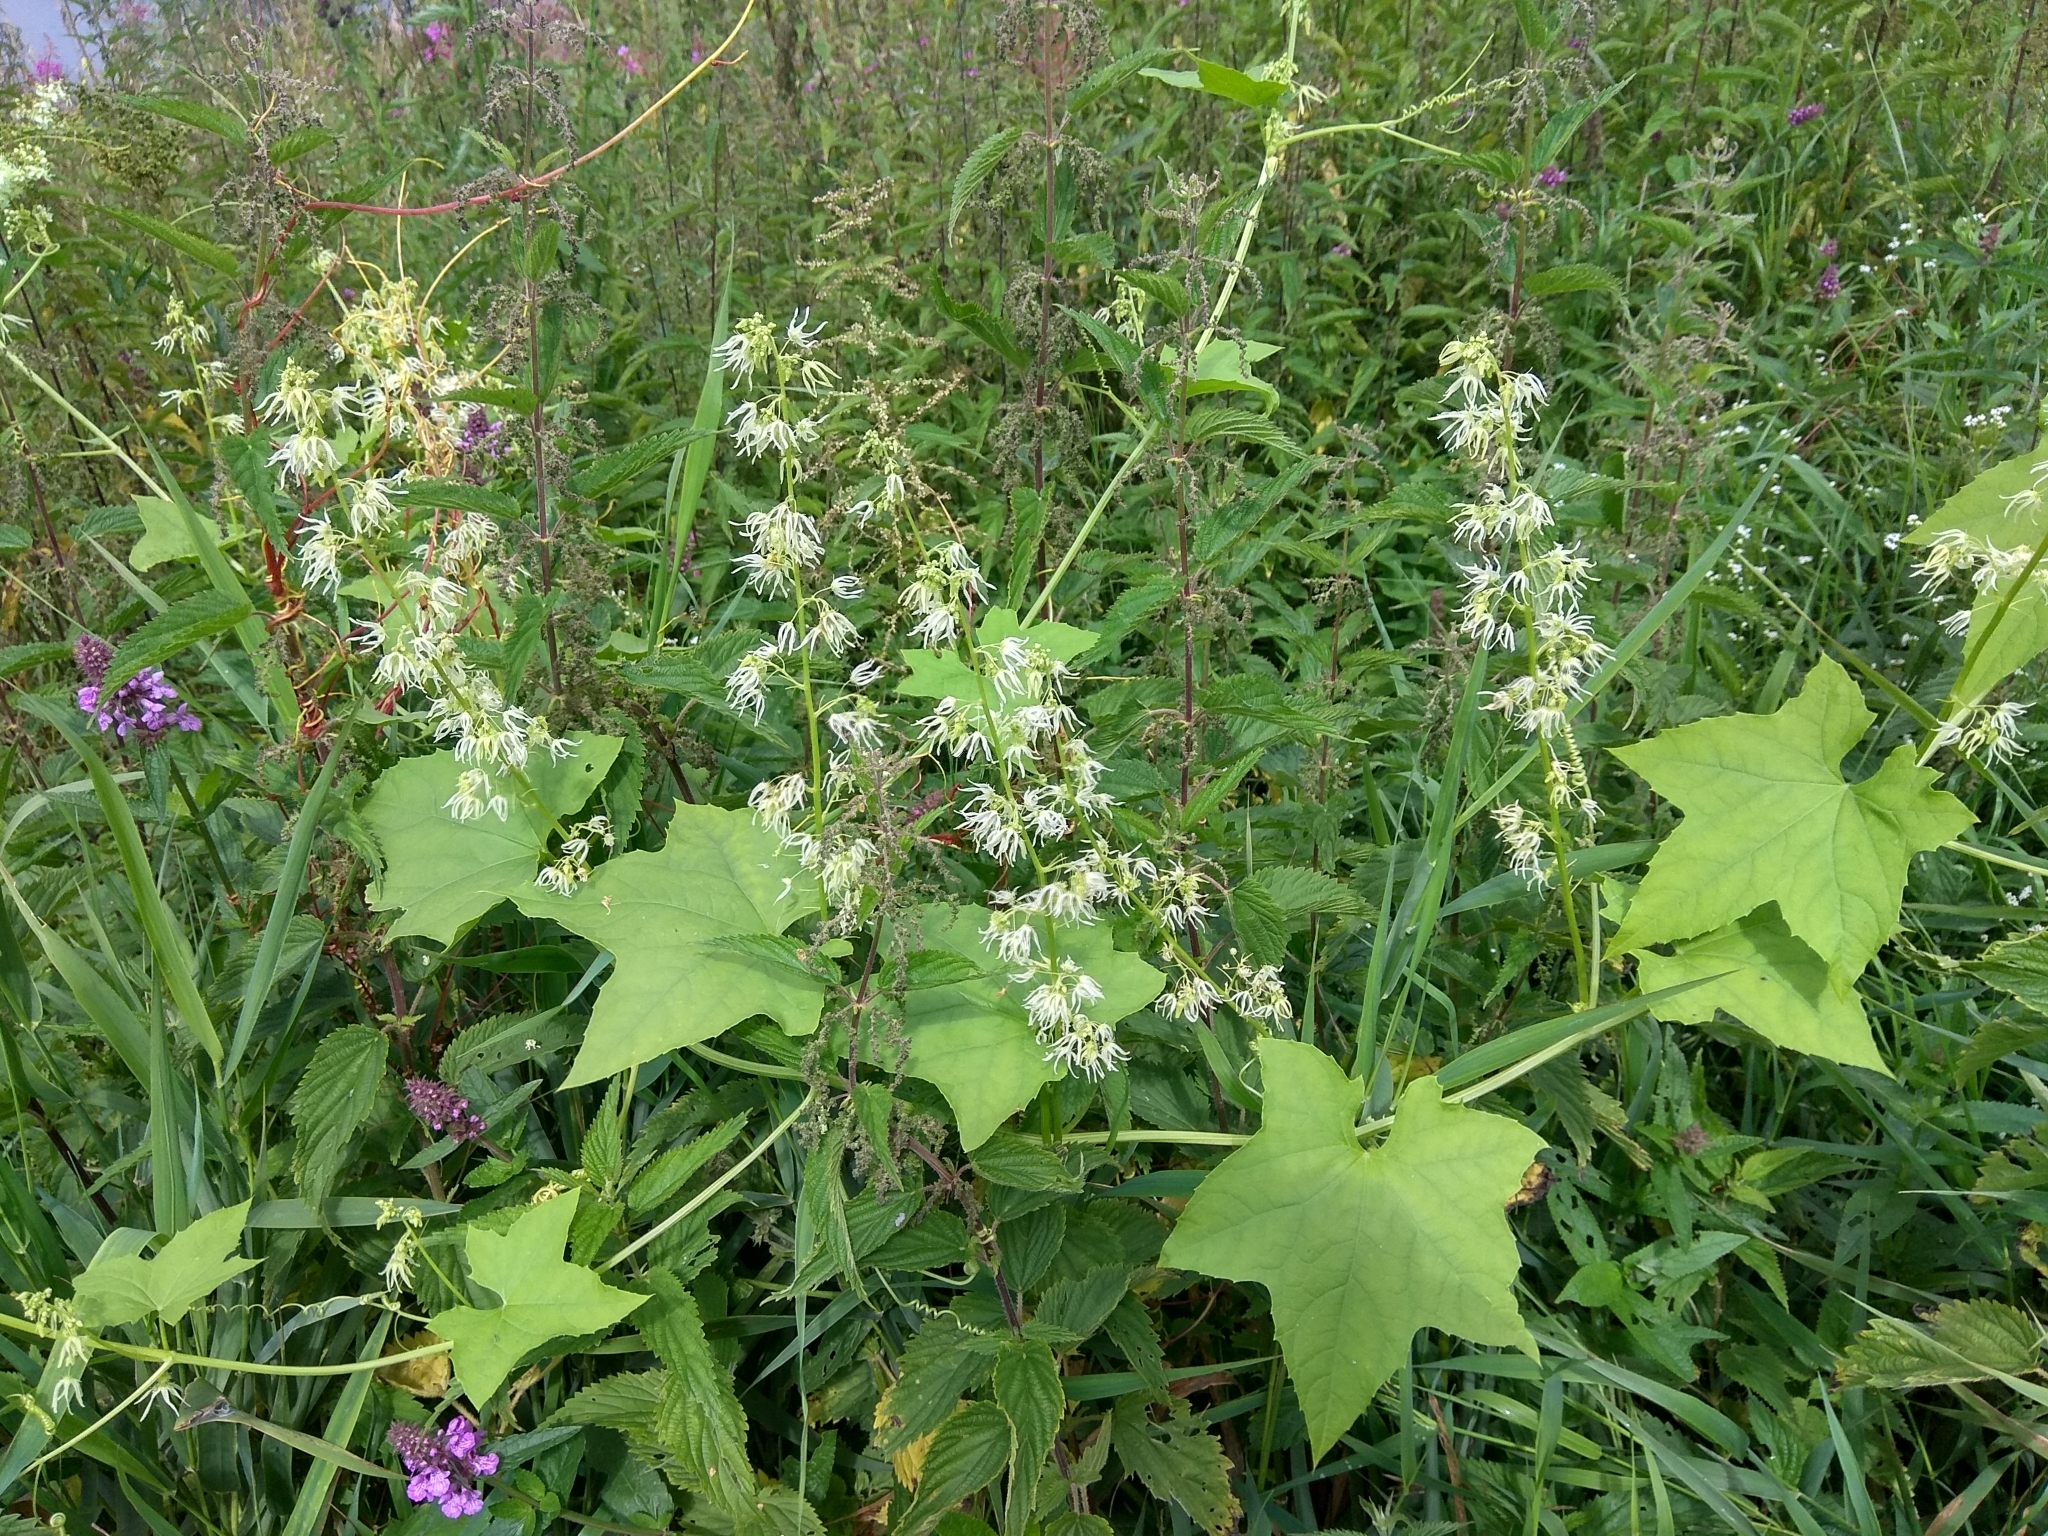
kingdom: Plantae
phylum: Tracheophyta
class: Magnoliopsida
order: Cucurbitales
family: Cucurbitaceae
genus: Echinocystis
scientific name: Echinocystis lobata
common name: Wild cucumber
